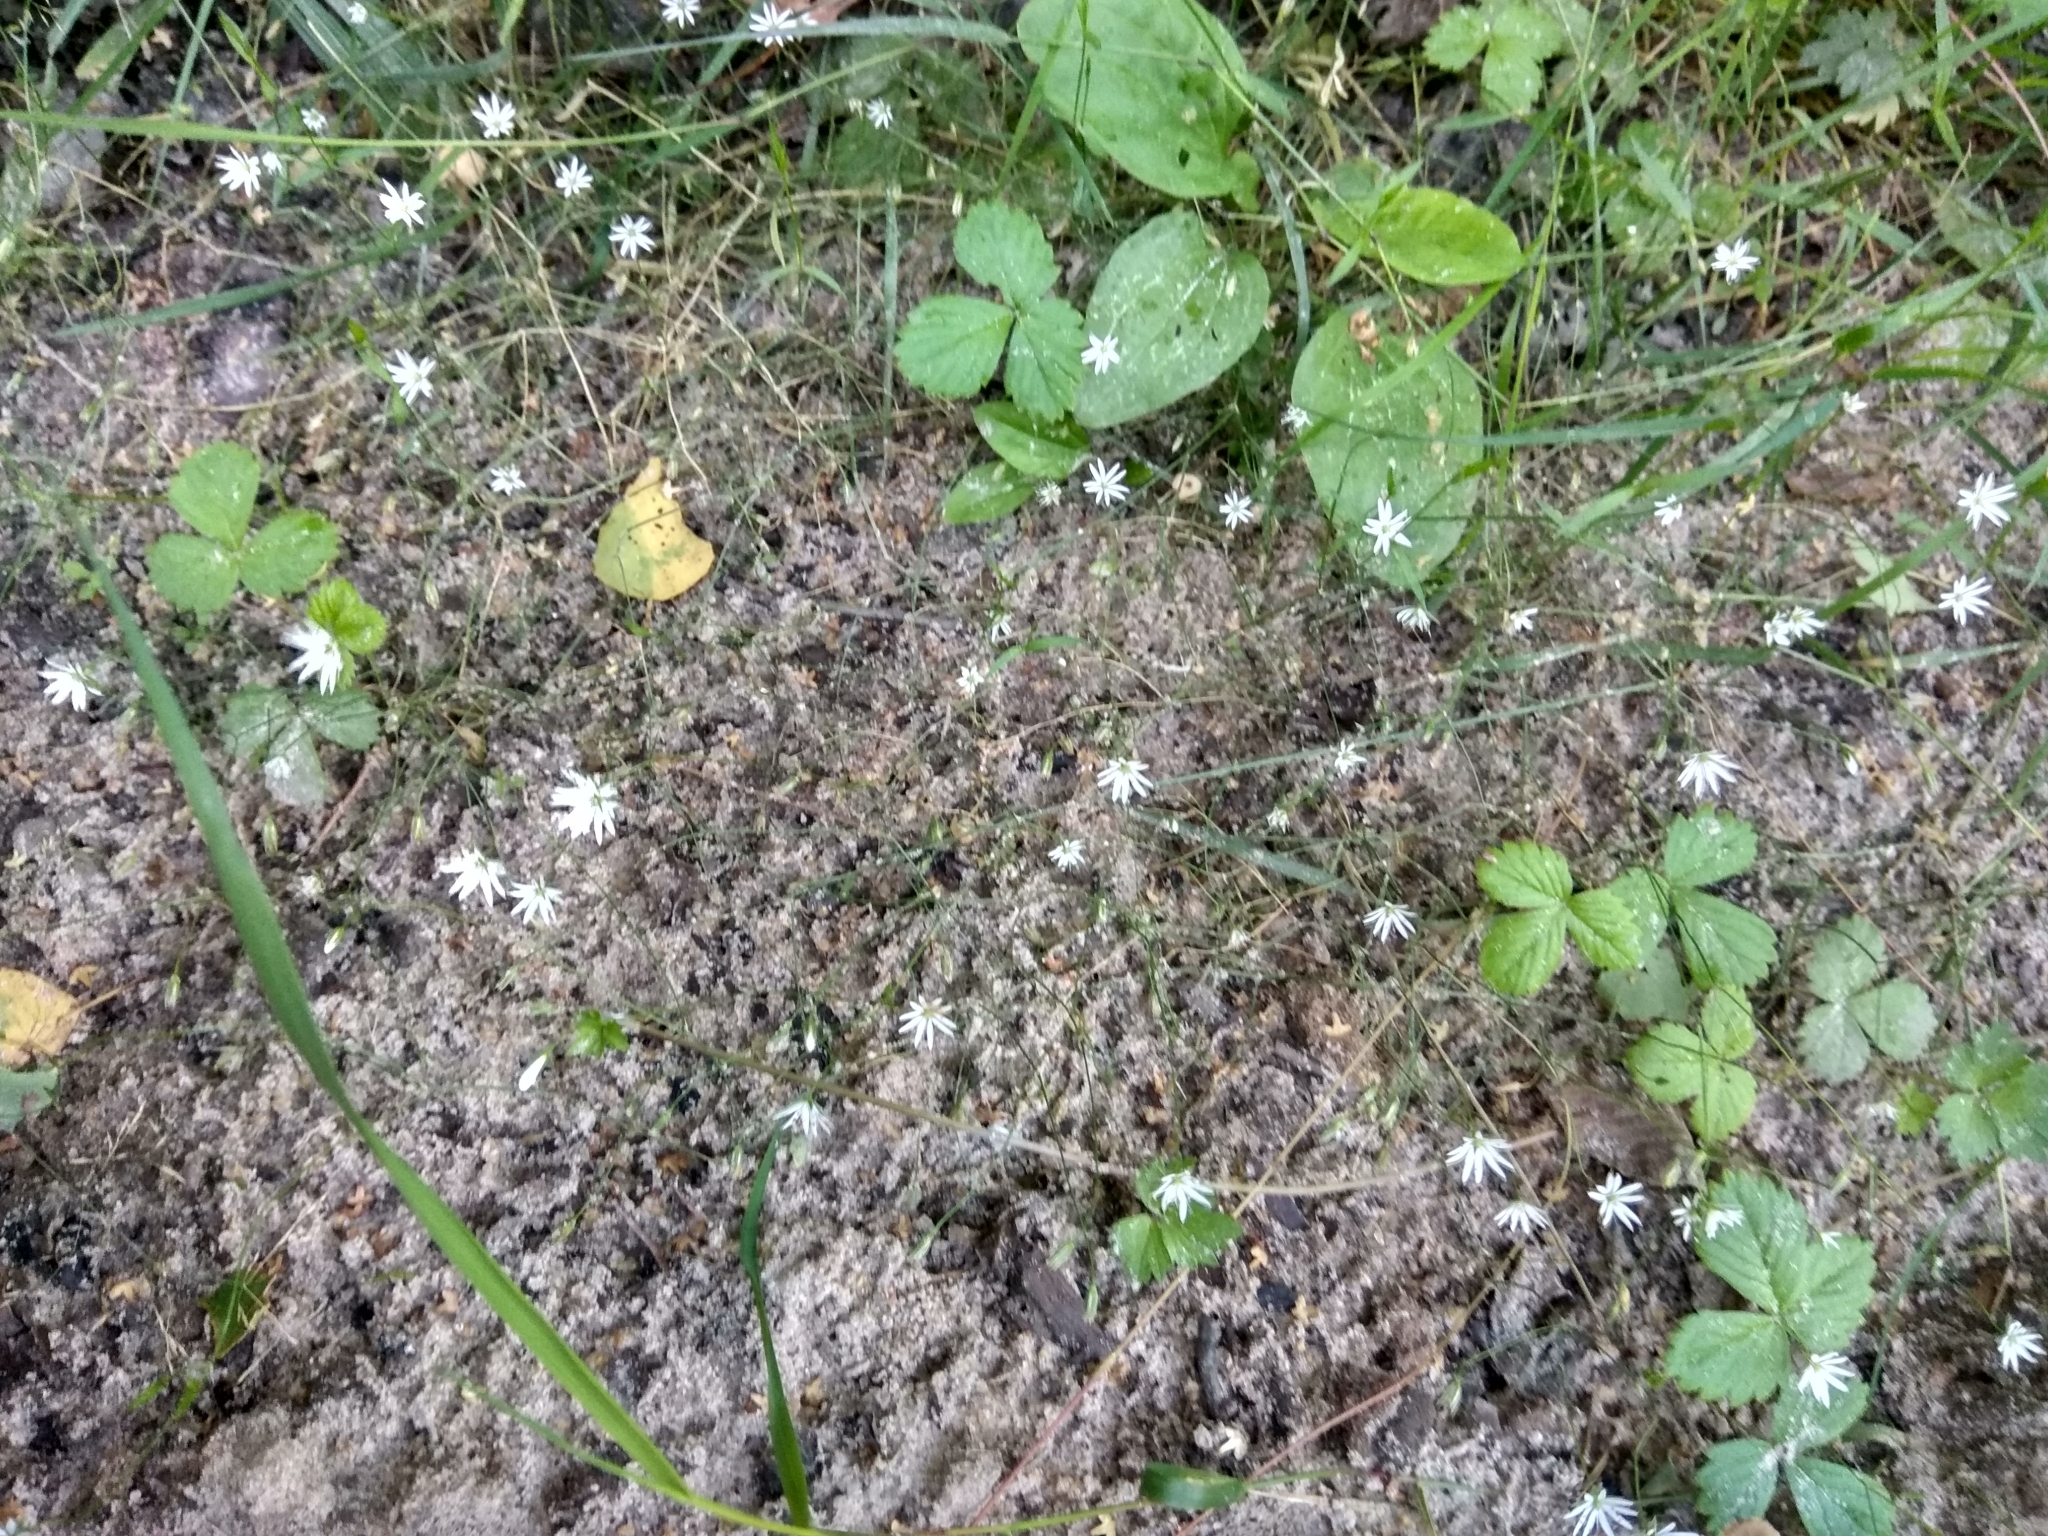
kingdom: Plantae
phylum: Tracheophyta
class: Magnoliopsida
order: Caryophyllales
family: Caryophyllaceae
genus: Stellaria
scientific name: Stellaria graminea
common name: Grass-like starwort
